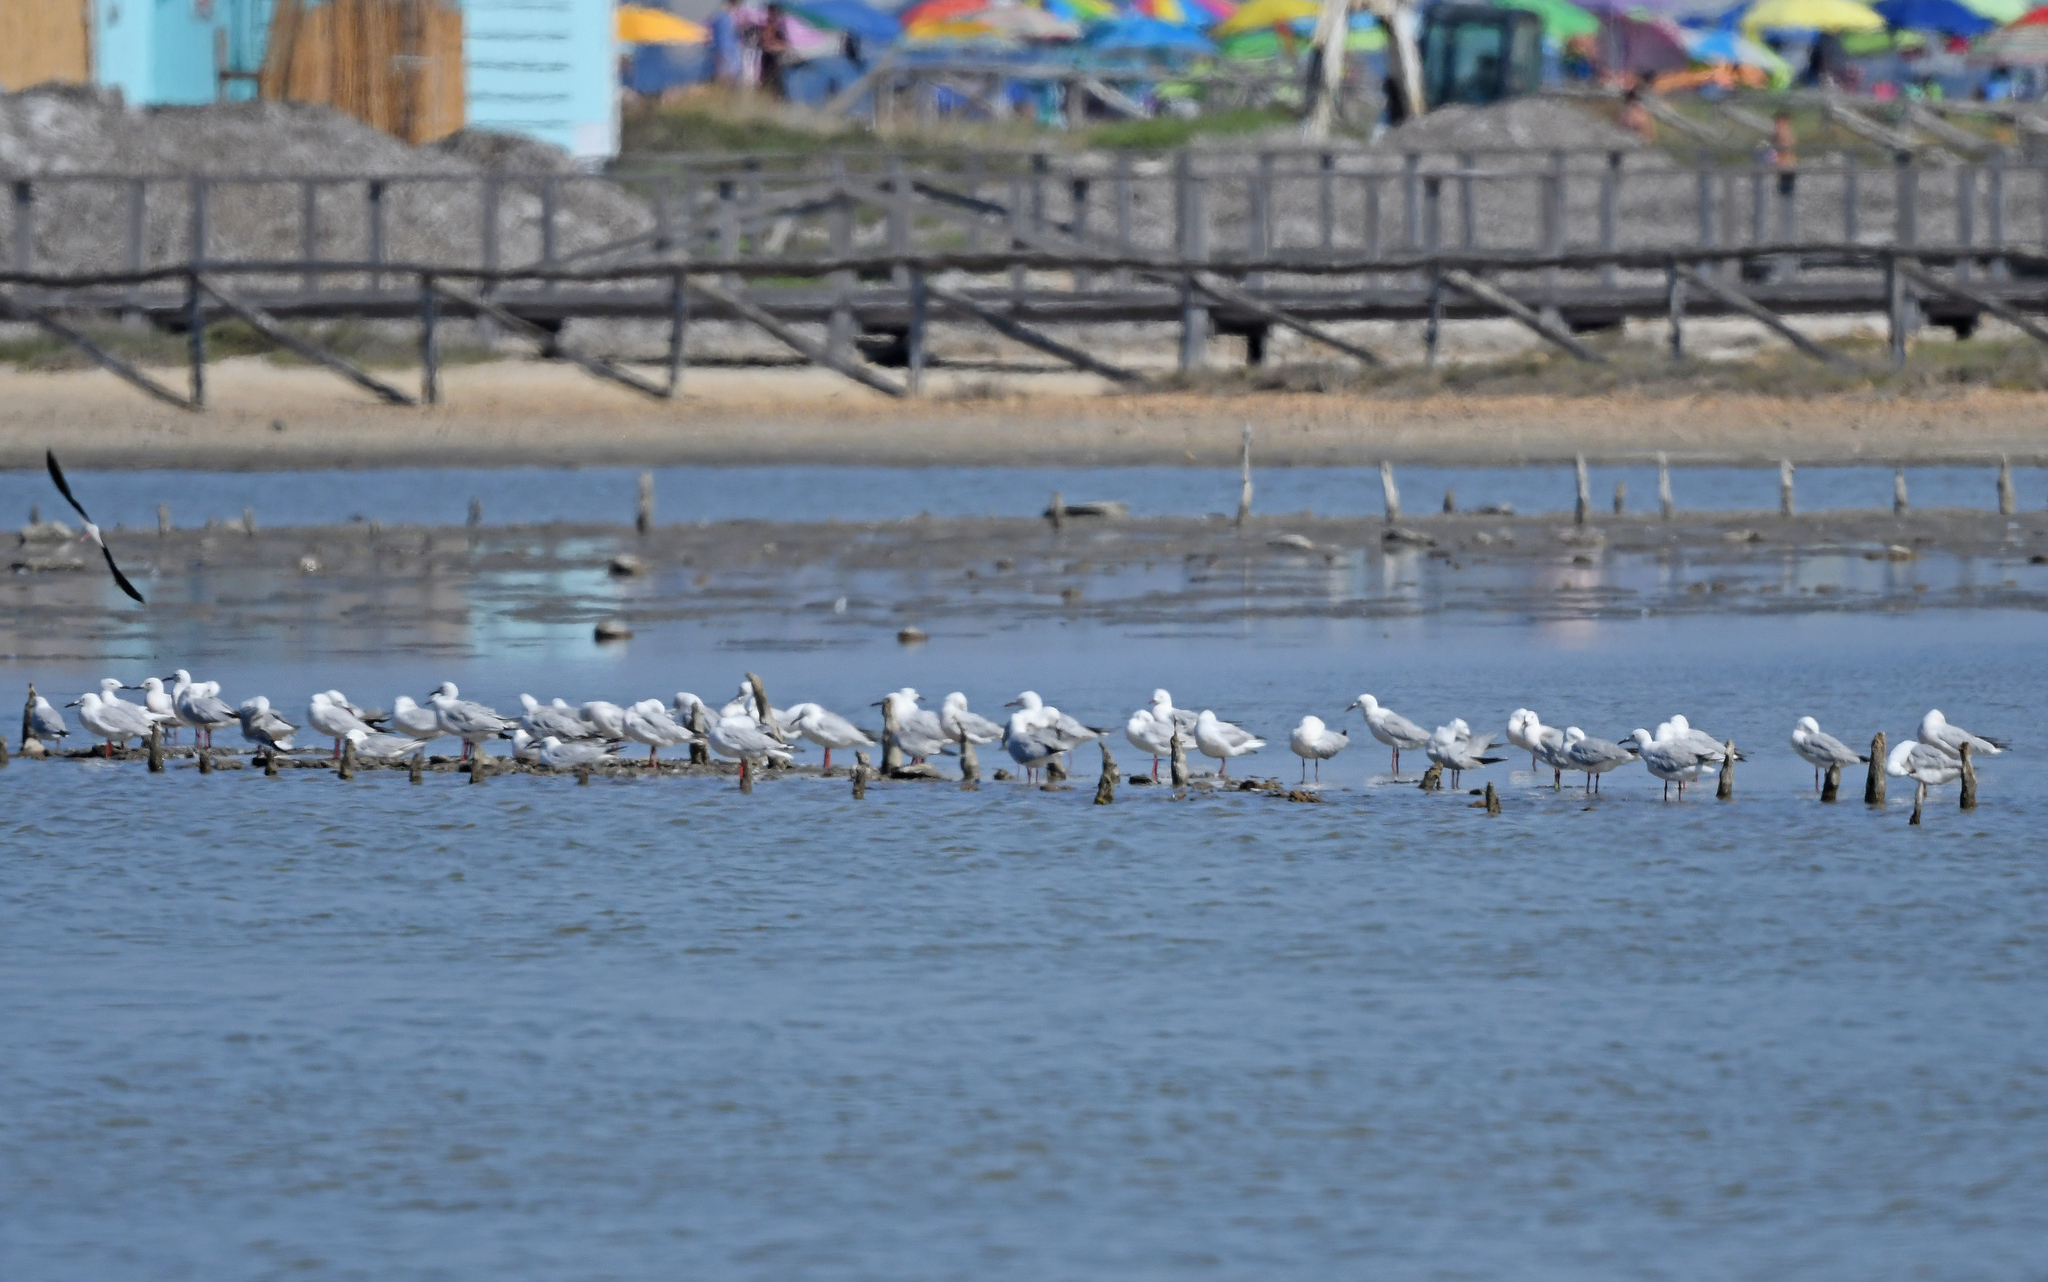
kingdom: Animalia
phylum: Chordata
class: Aves
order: Charadriiformes
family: Laridae
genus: Chroicocephalus
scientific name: Chroicocephalus genei
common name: Slender-billed gull
